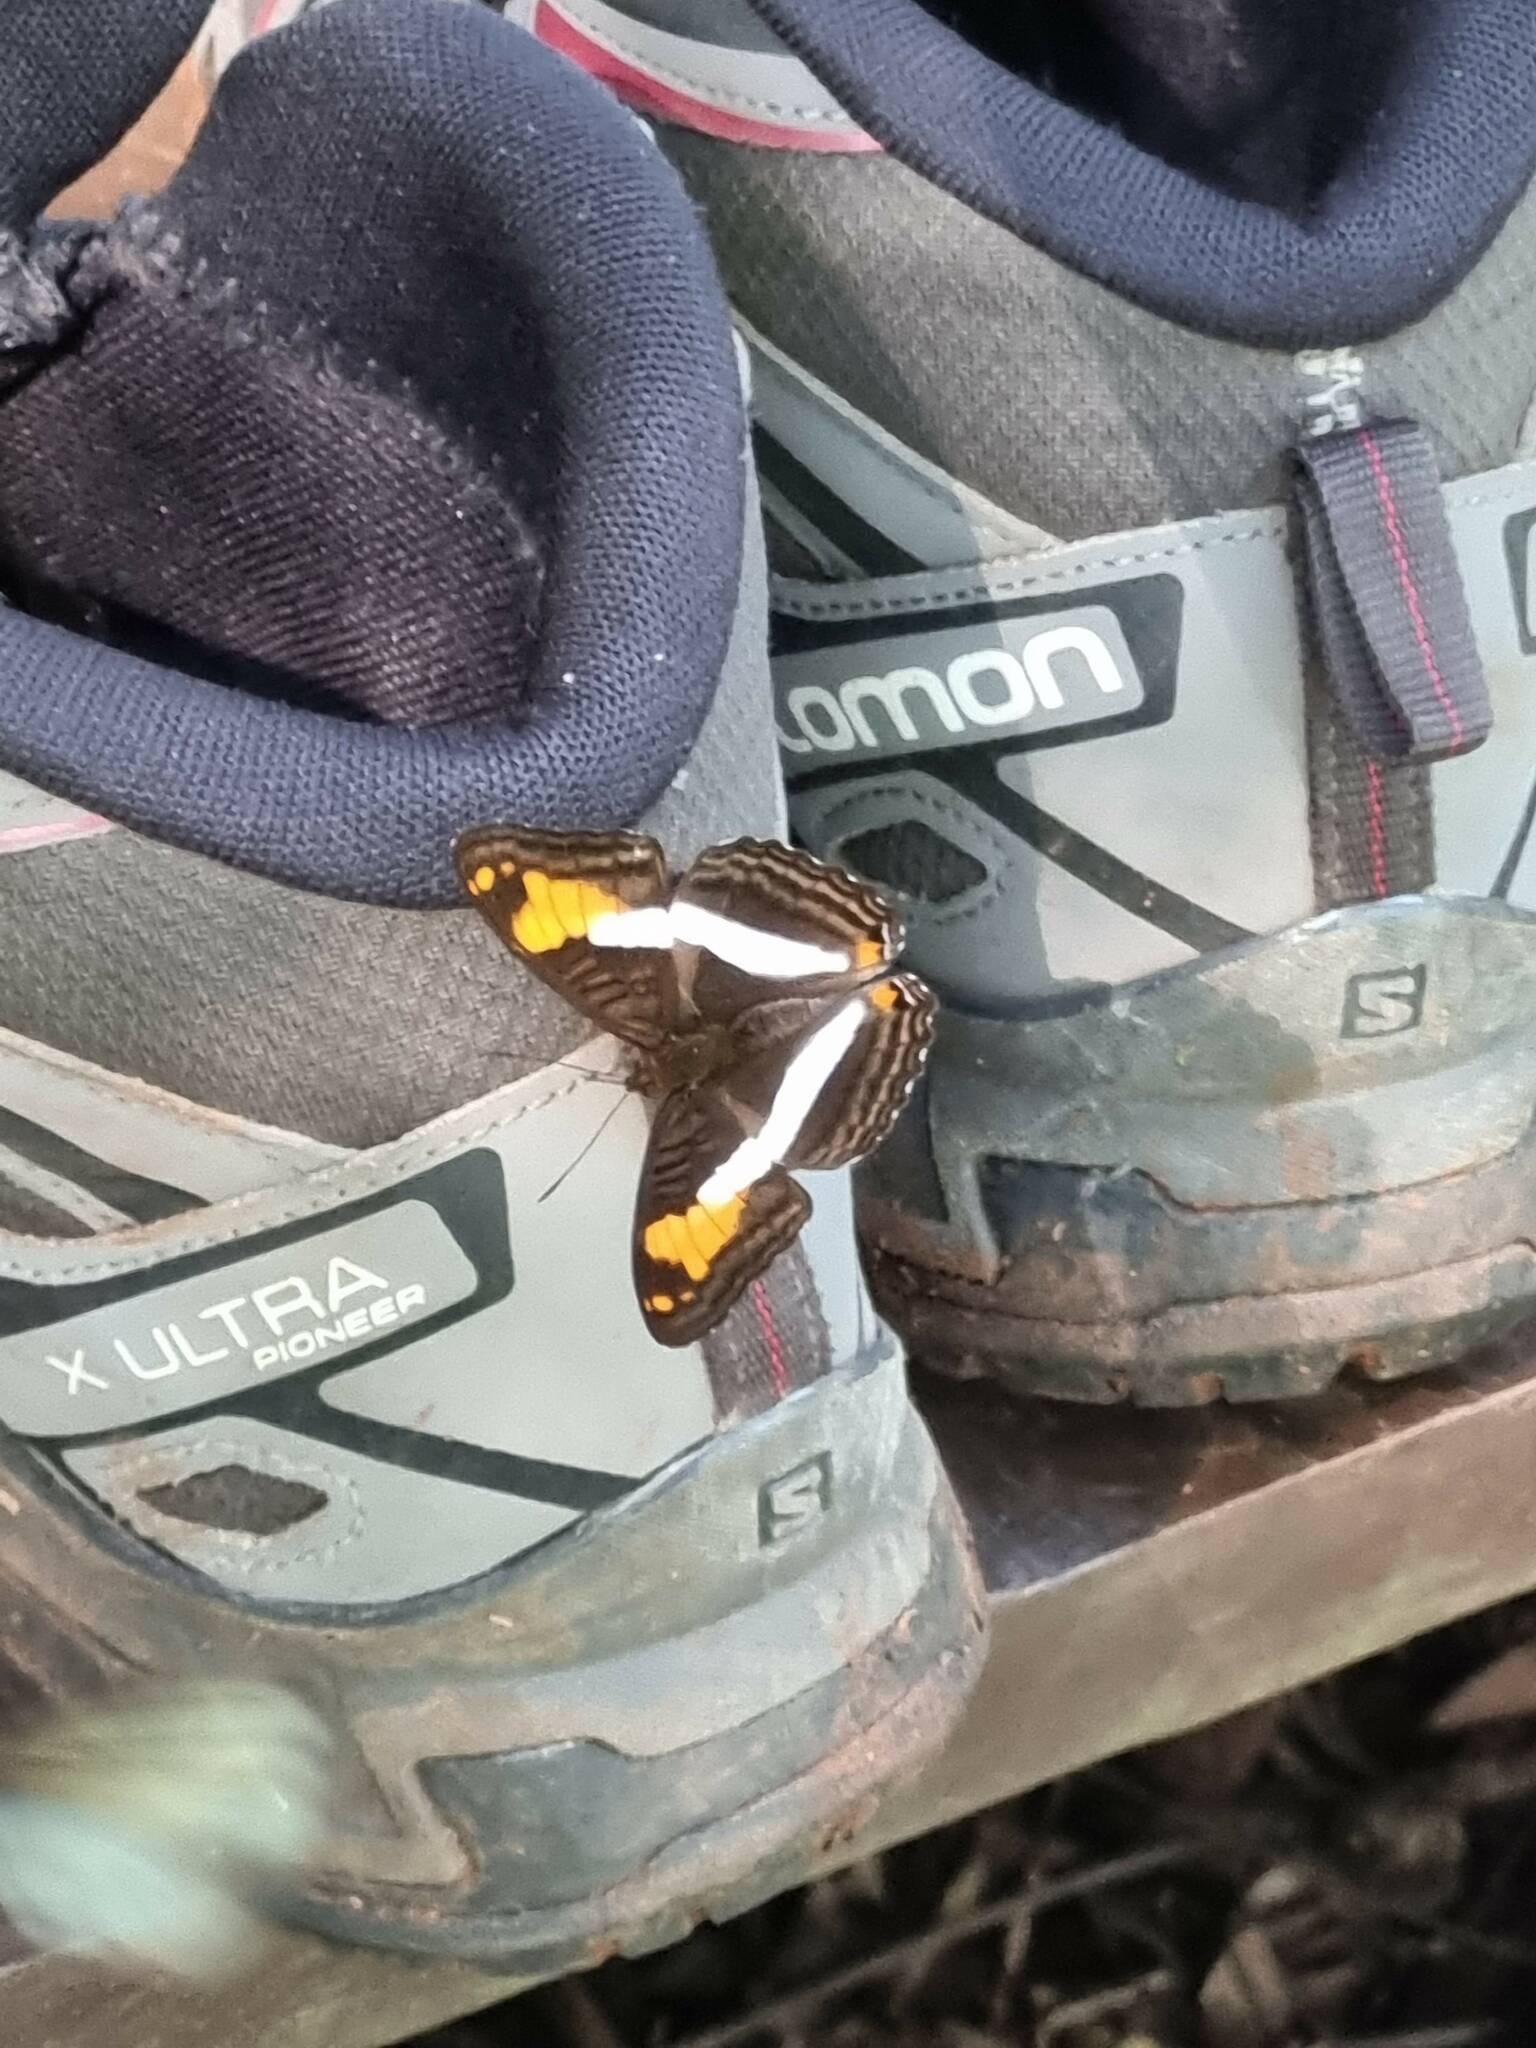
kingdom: Animalia
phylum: Arthropoda
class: Insecta
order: Lepidoptera
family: Nymphalidae
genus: Limenitis
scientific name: Limenitis malea
